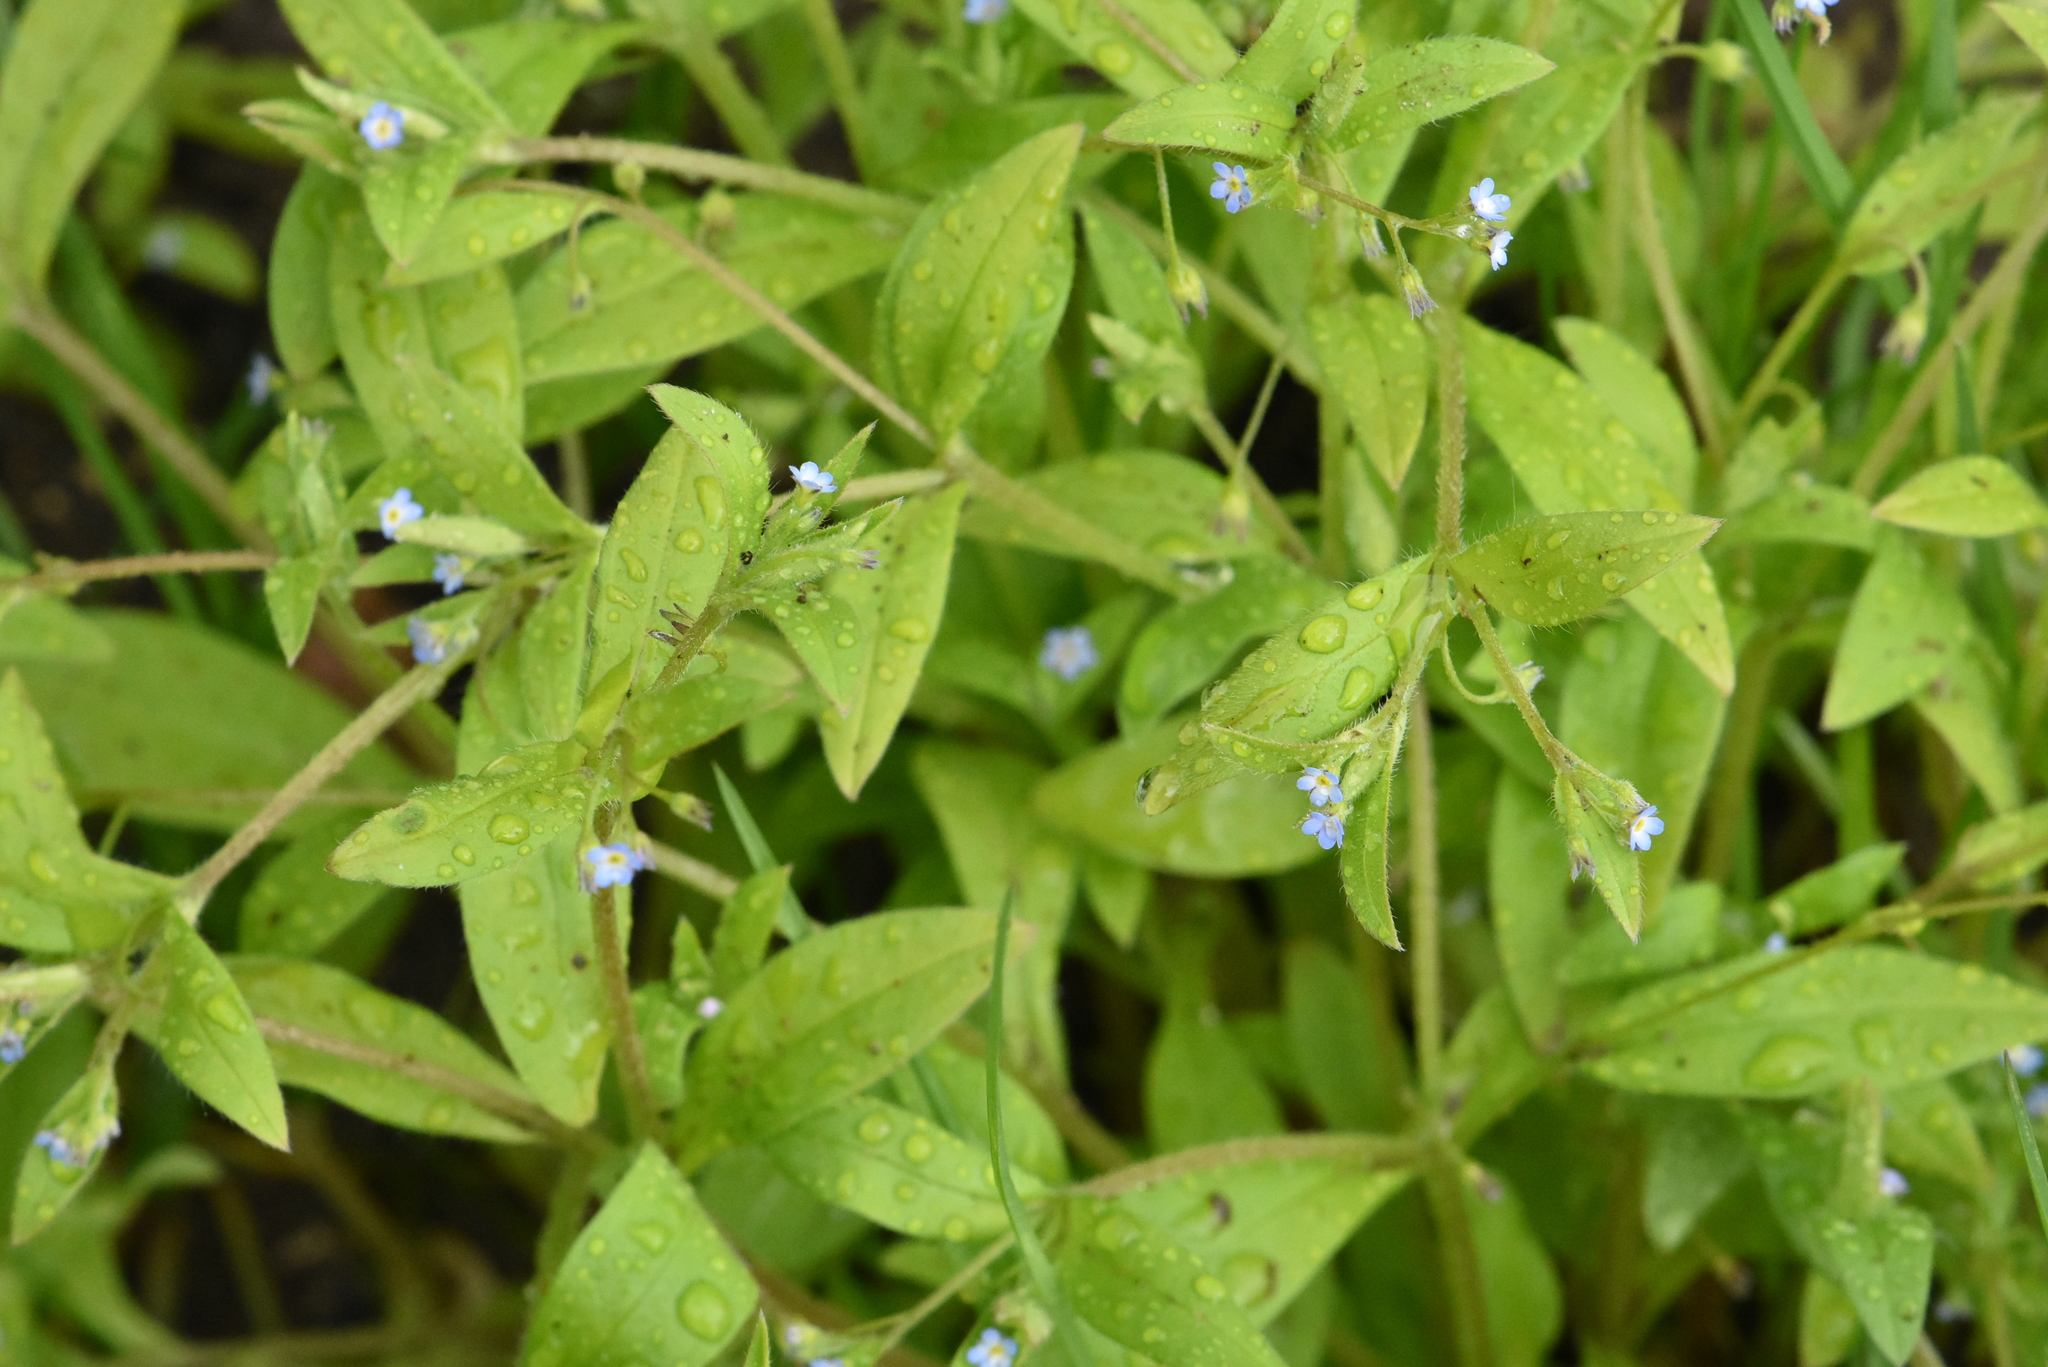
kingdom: Plantae
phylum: Tracheophyta
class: Magnoliopsida
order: Boraginales
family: Boraginaceae
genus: Myosotis
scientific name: Myosotis sparsiflora
